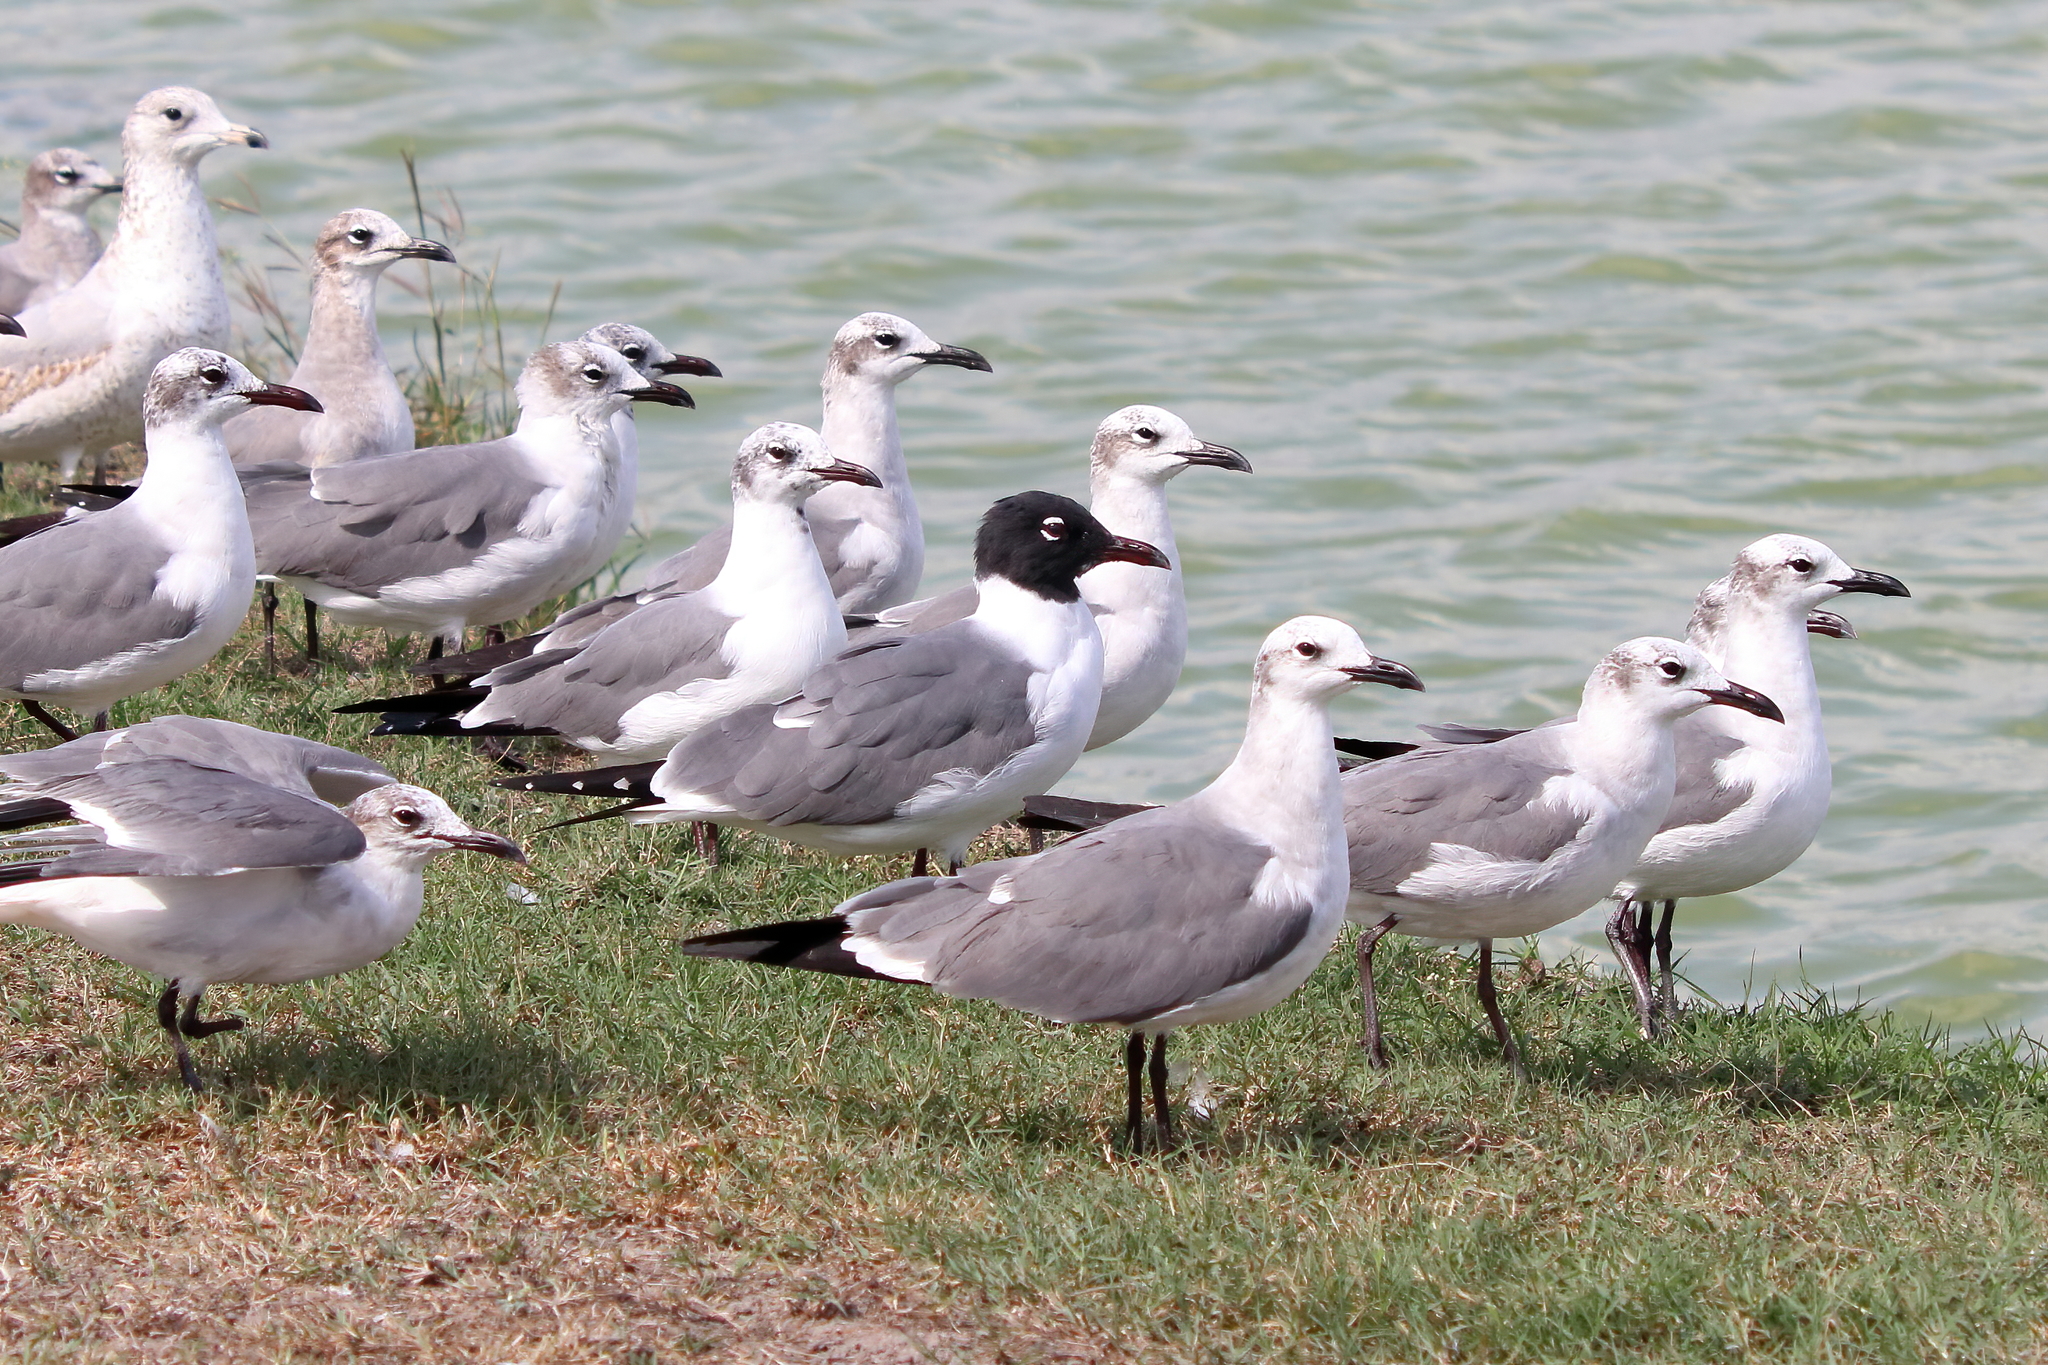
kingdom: Animalia
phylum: Chordata
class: Aves
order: Charadriiformes
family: Laridae
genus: Leucophaeus
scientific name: Leucophaeus atricilla
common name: Laughing gull
